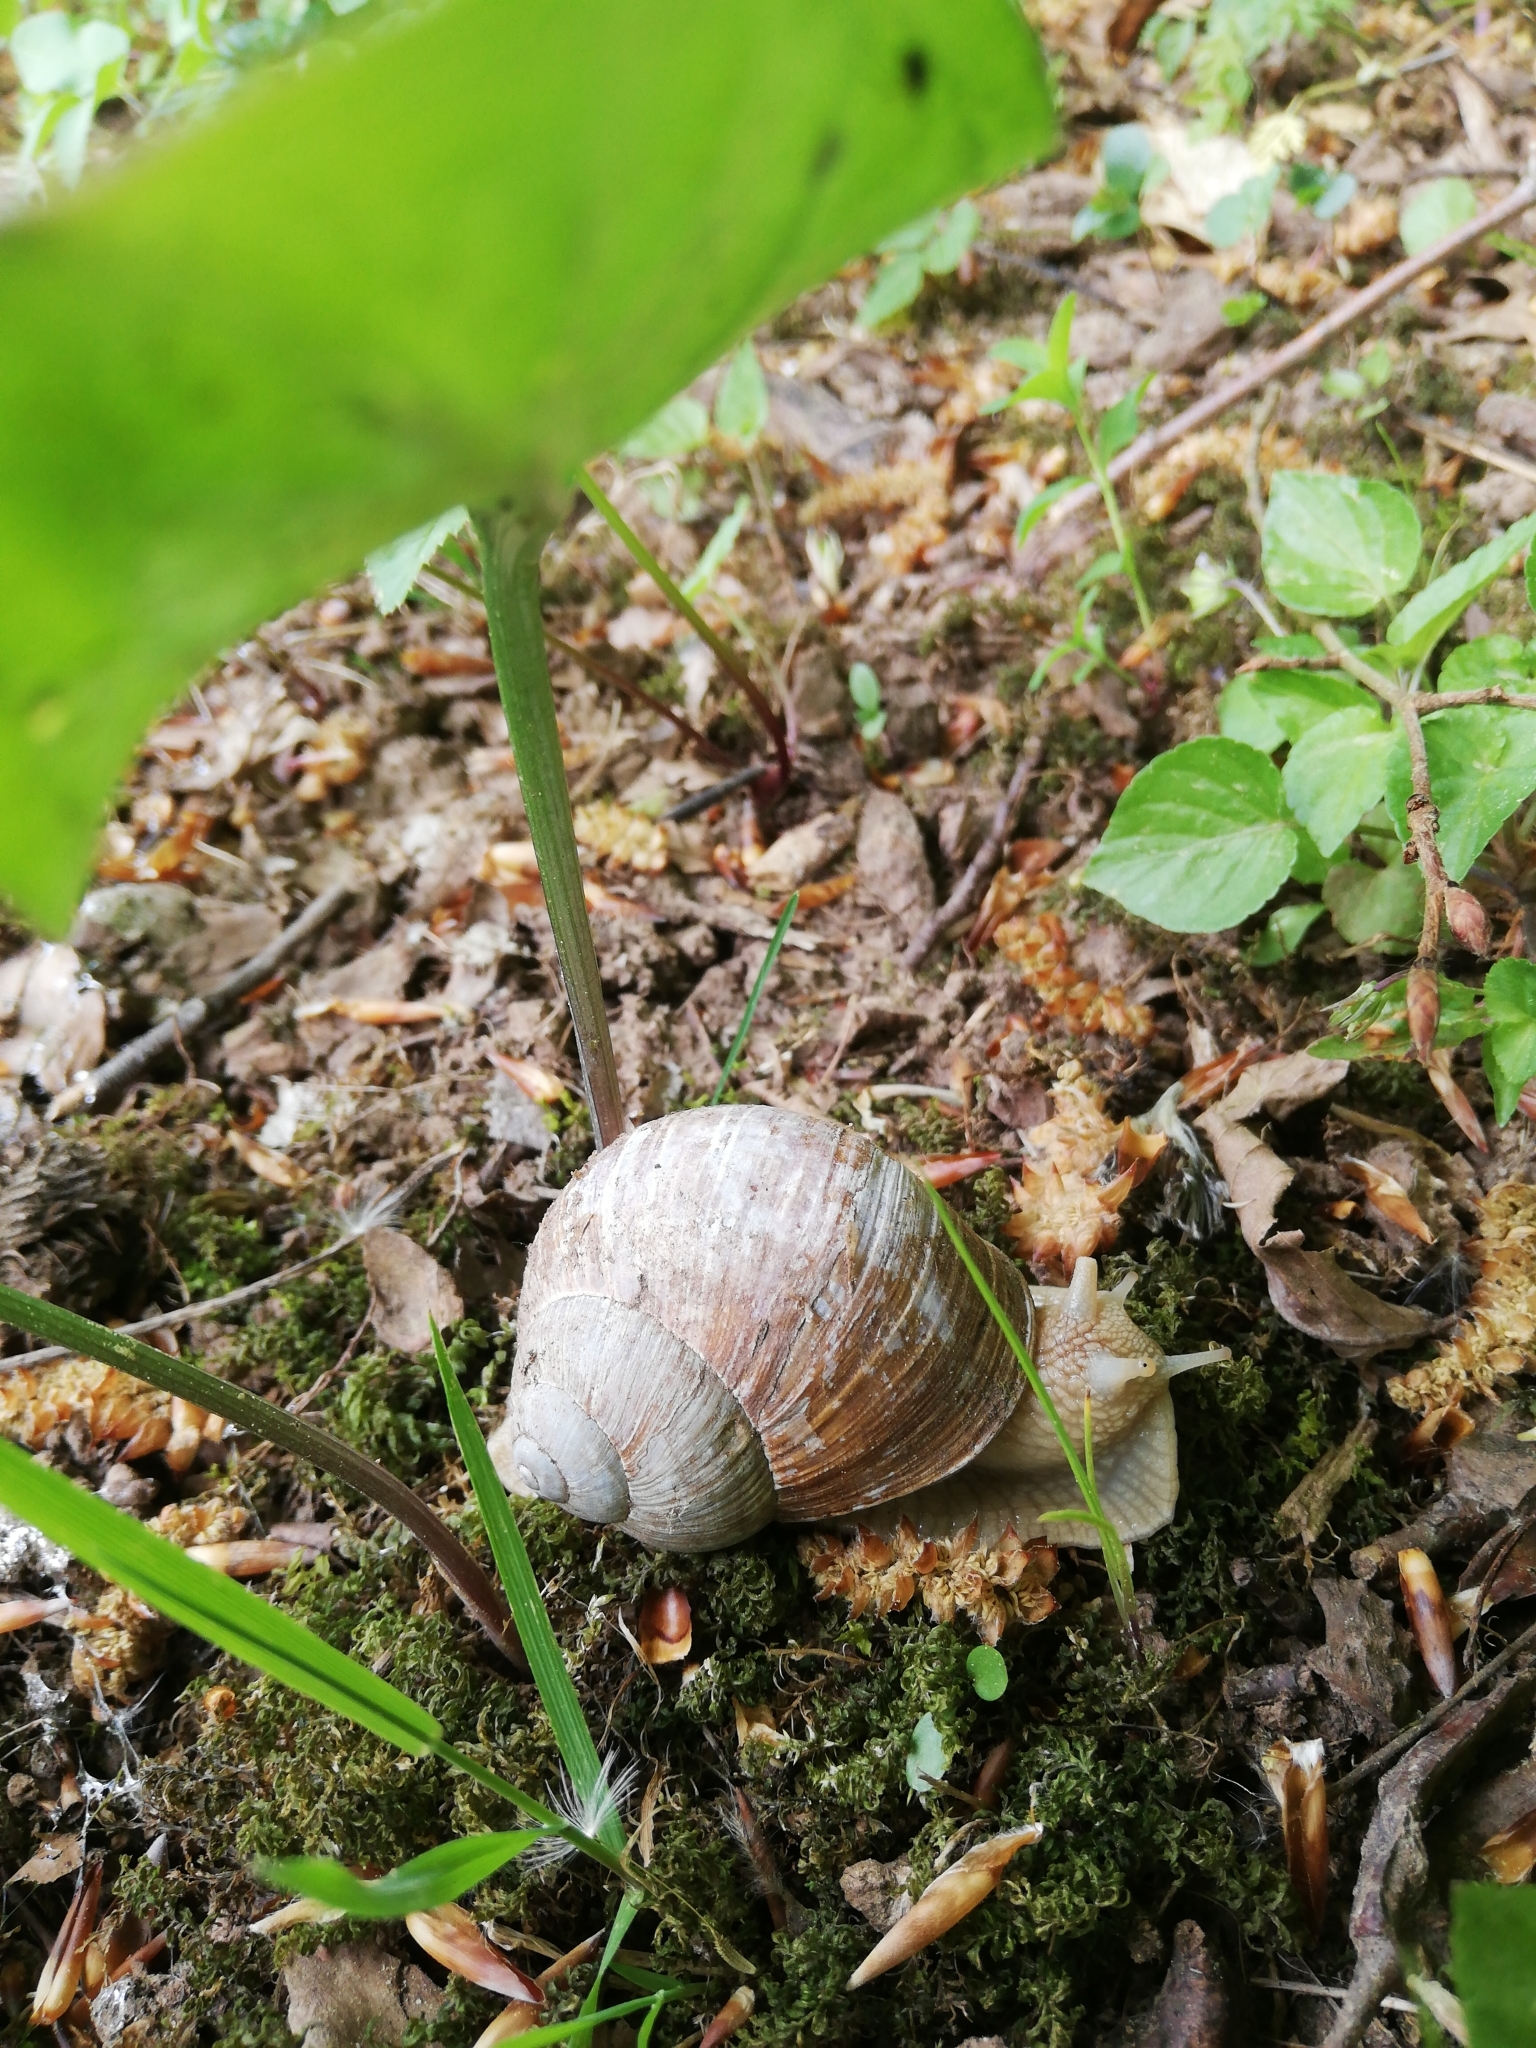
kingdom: Animalia
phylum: Mollusca
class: Gastropoda
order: Stylommatophora
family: Helicidae
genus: Helix
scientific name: Helix pomatia
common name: Roman snail
